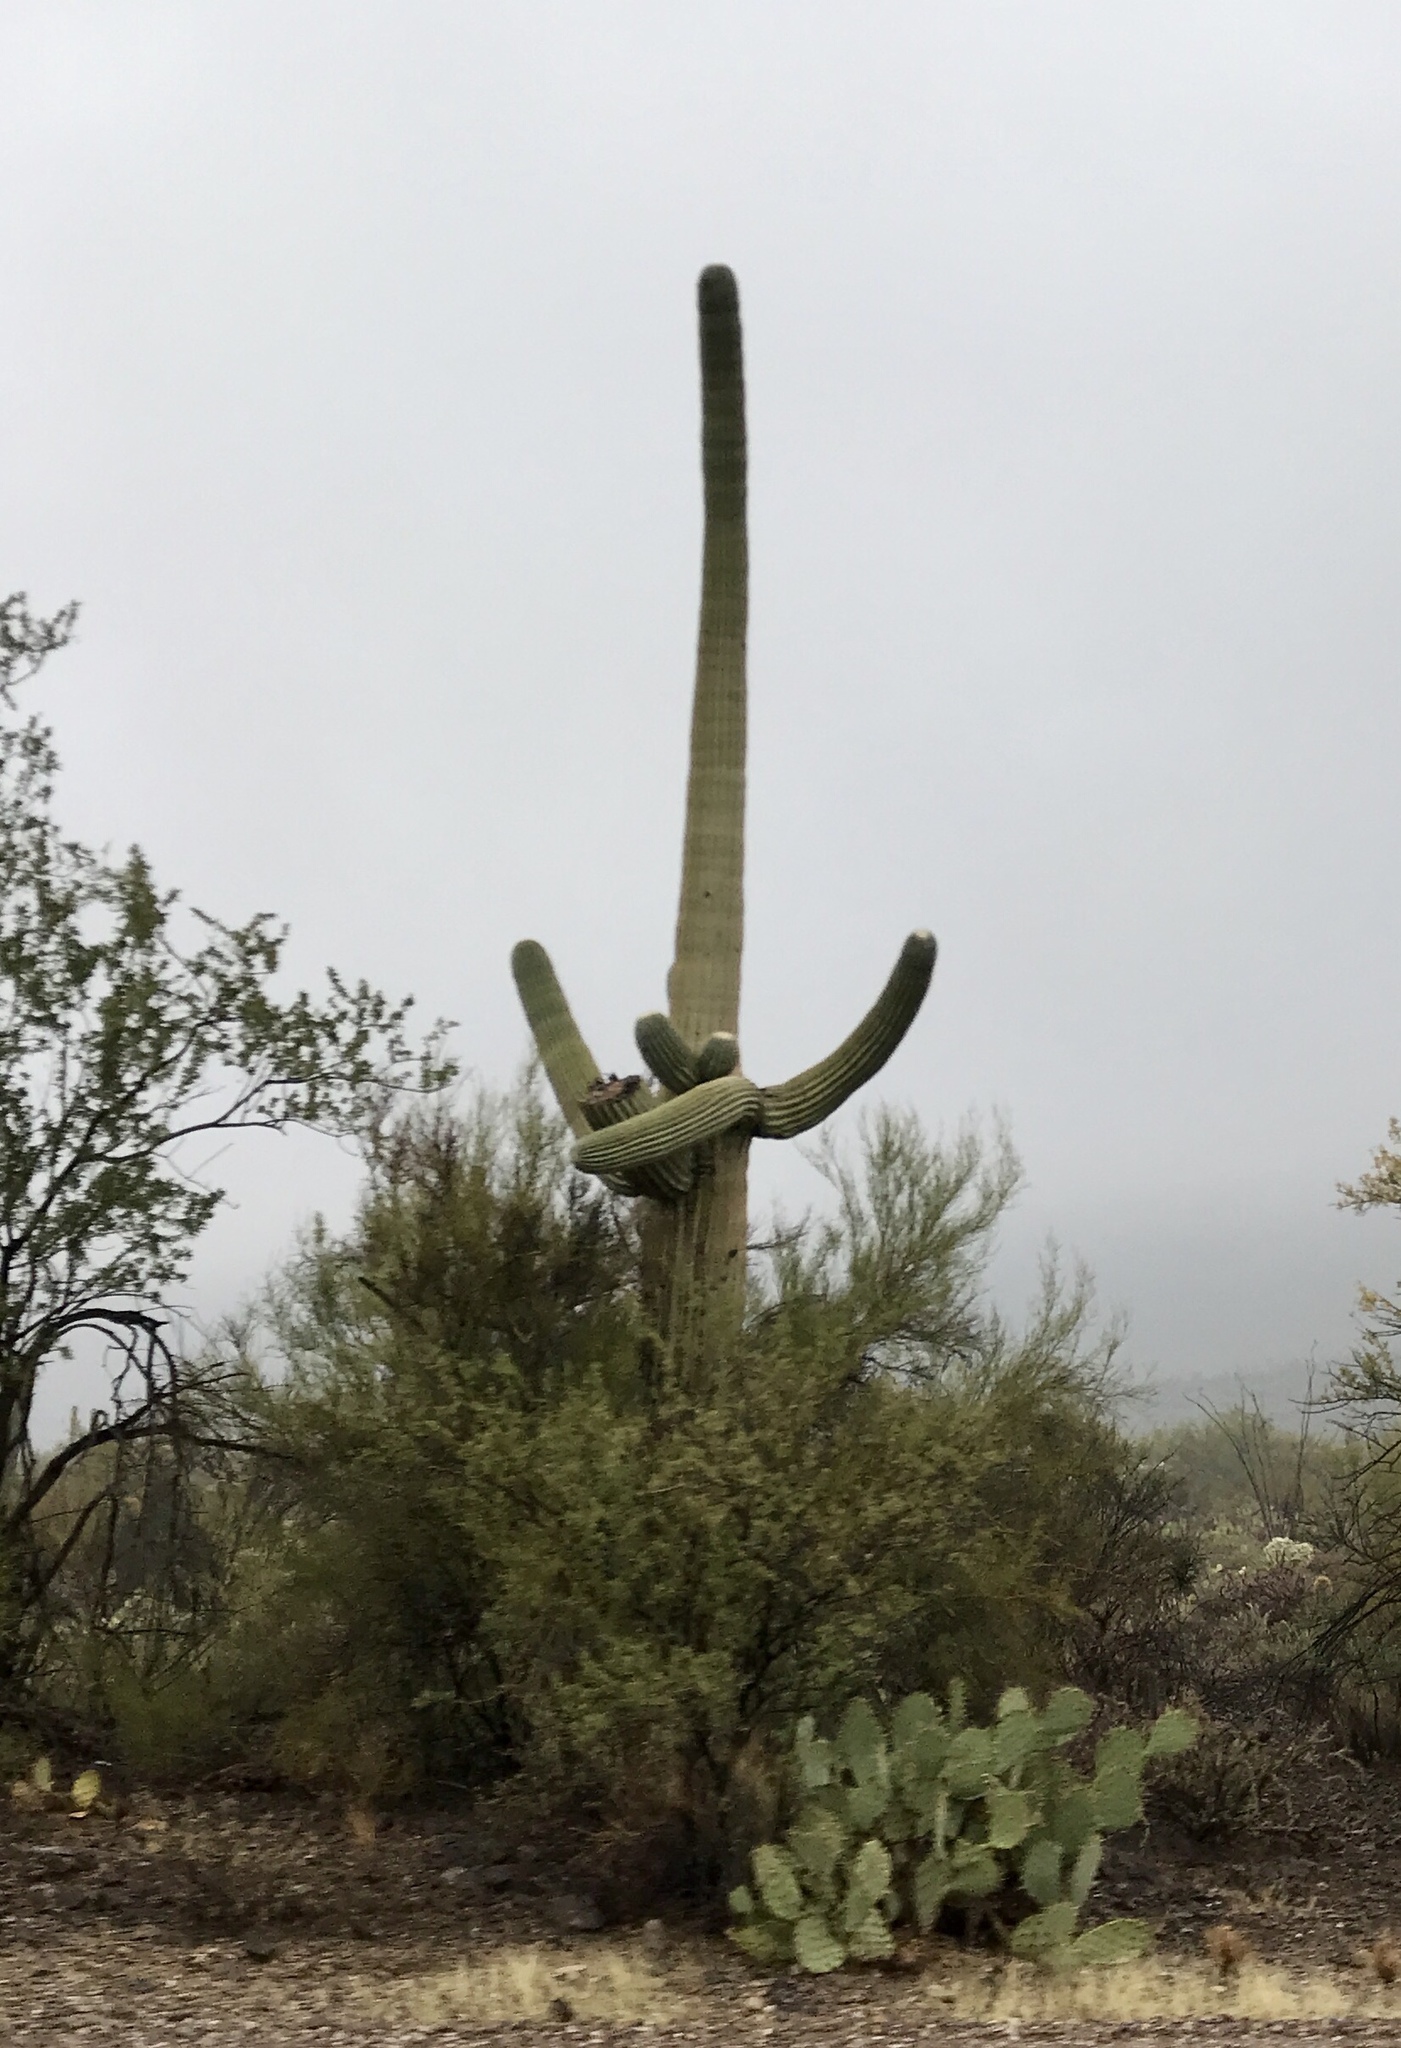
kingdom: Plantae
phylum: Tracheophyta
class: Magnoliopsida
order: Caryophyllales
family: Cactaceae
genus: Carnegiea
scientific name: Carnegiea gigantea
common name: Saguaro
